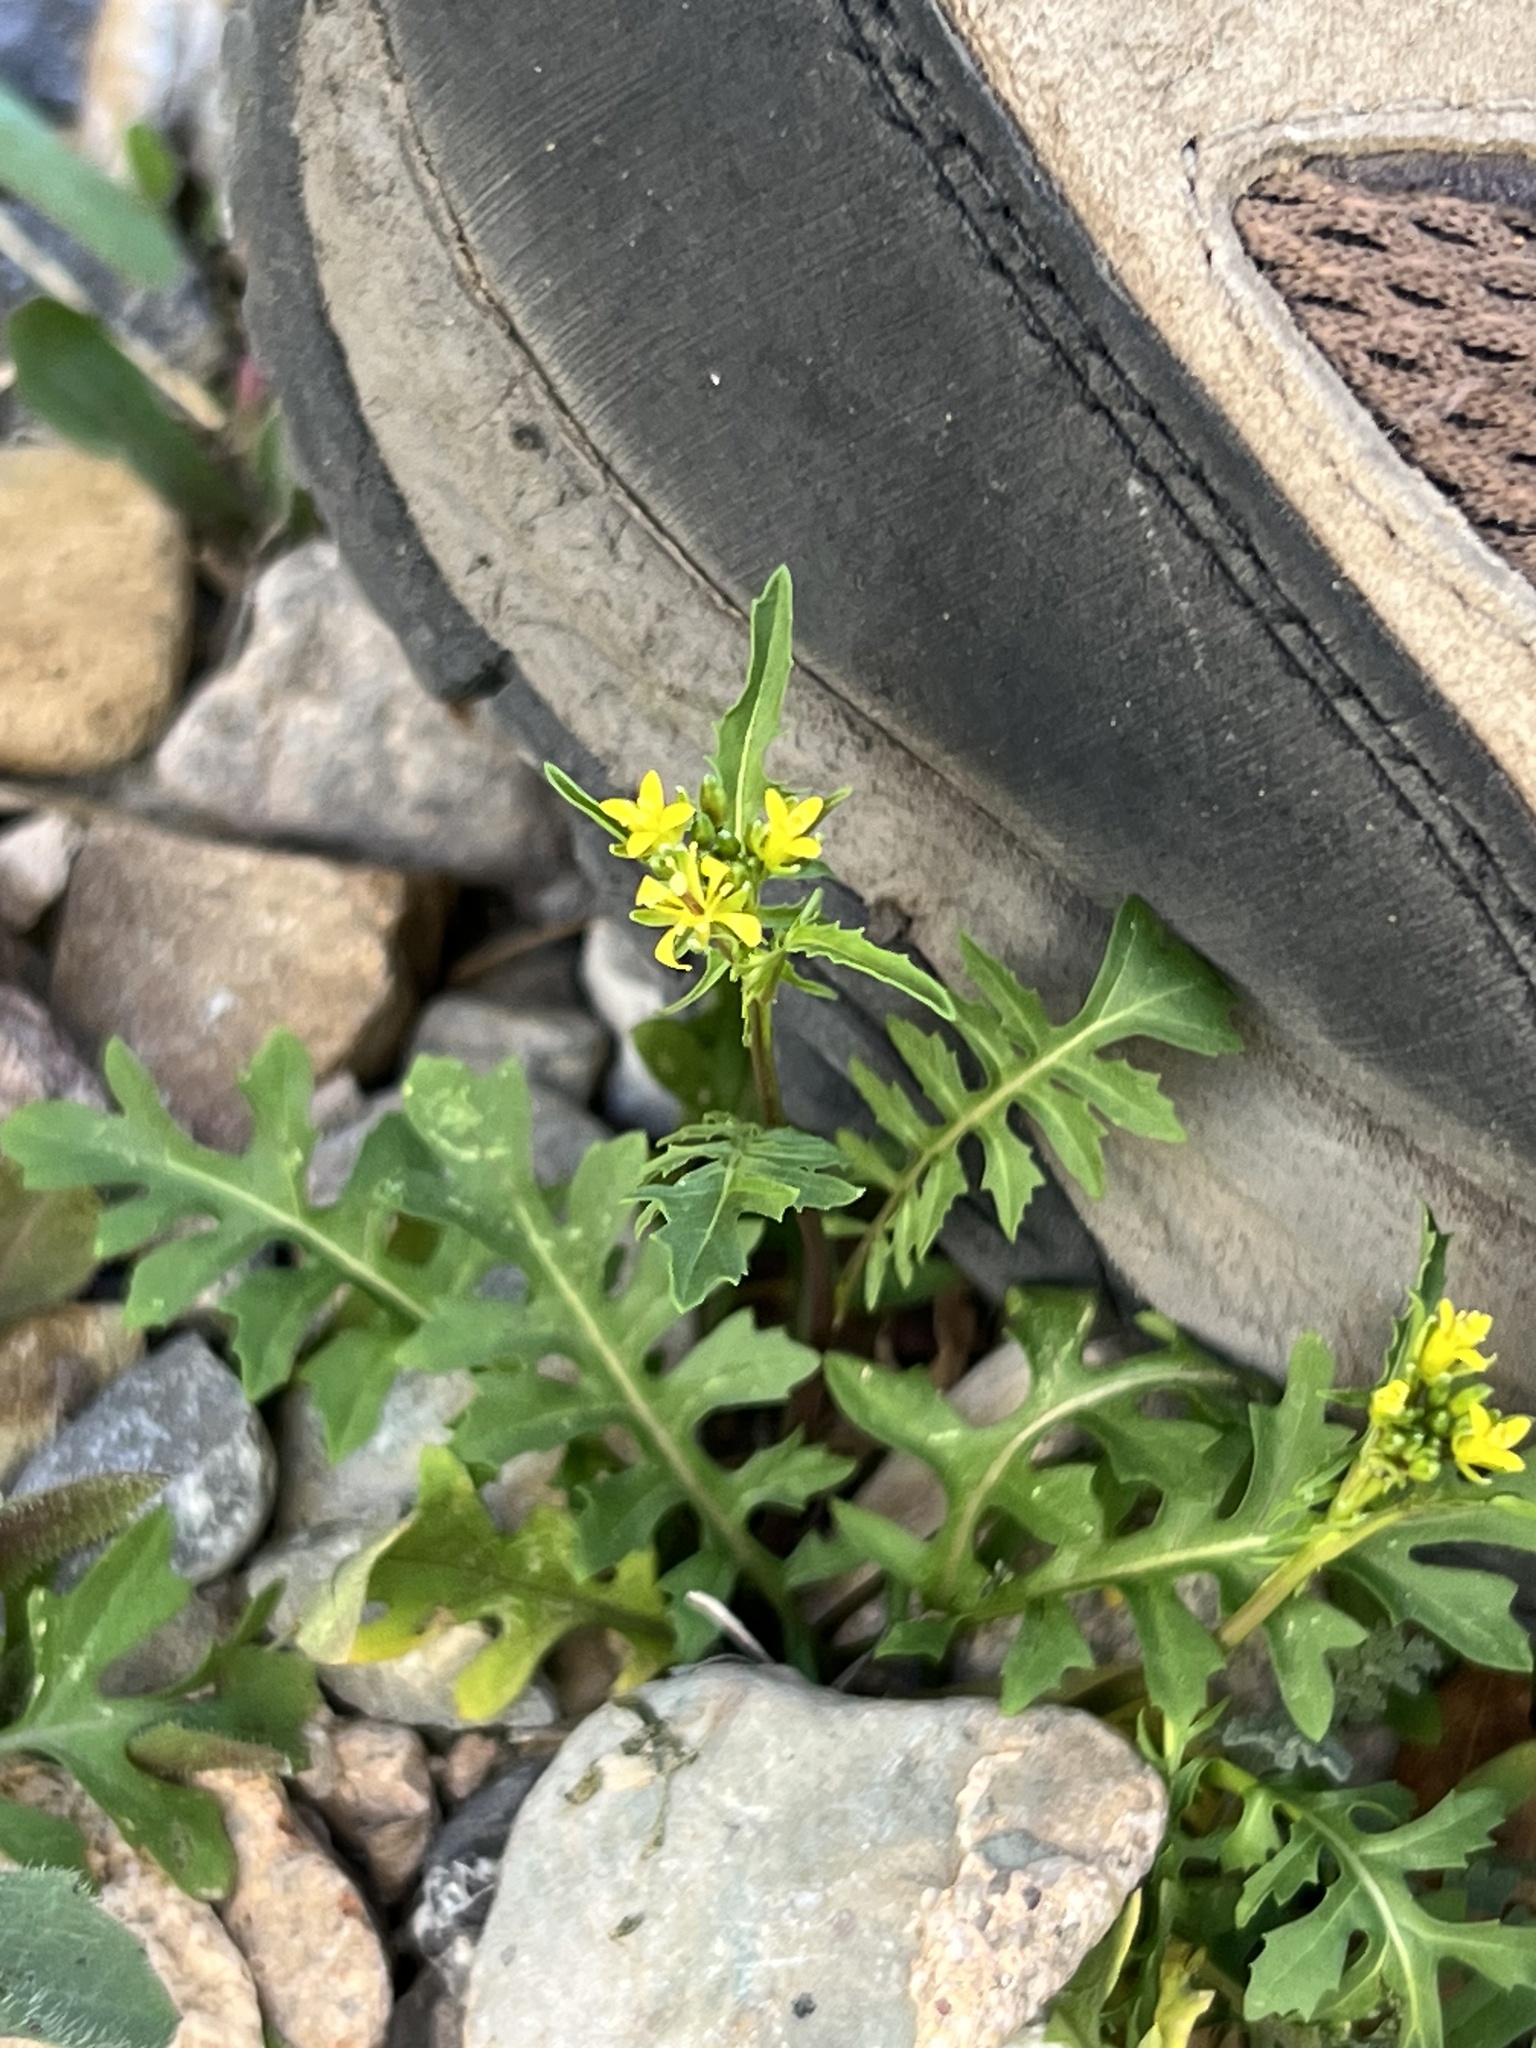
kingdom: Plantae
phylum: Tracheophyta
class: Magnoliopsida
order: Brassicales
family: Brassicaceae
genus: Sisymbrium
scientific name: Sisymbrium irio
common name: London rocket
